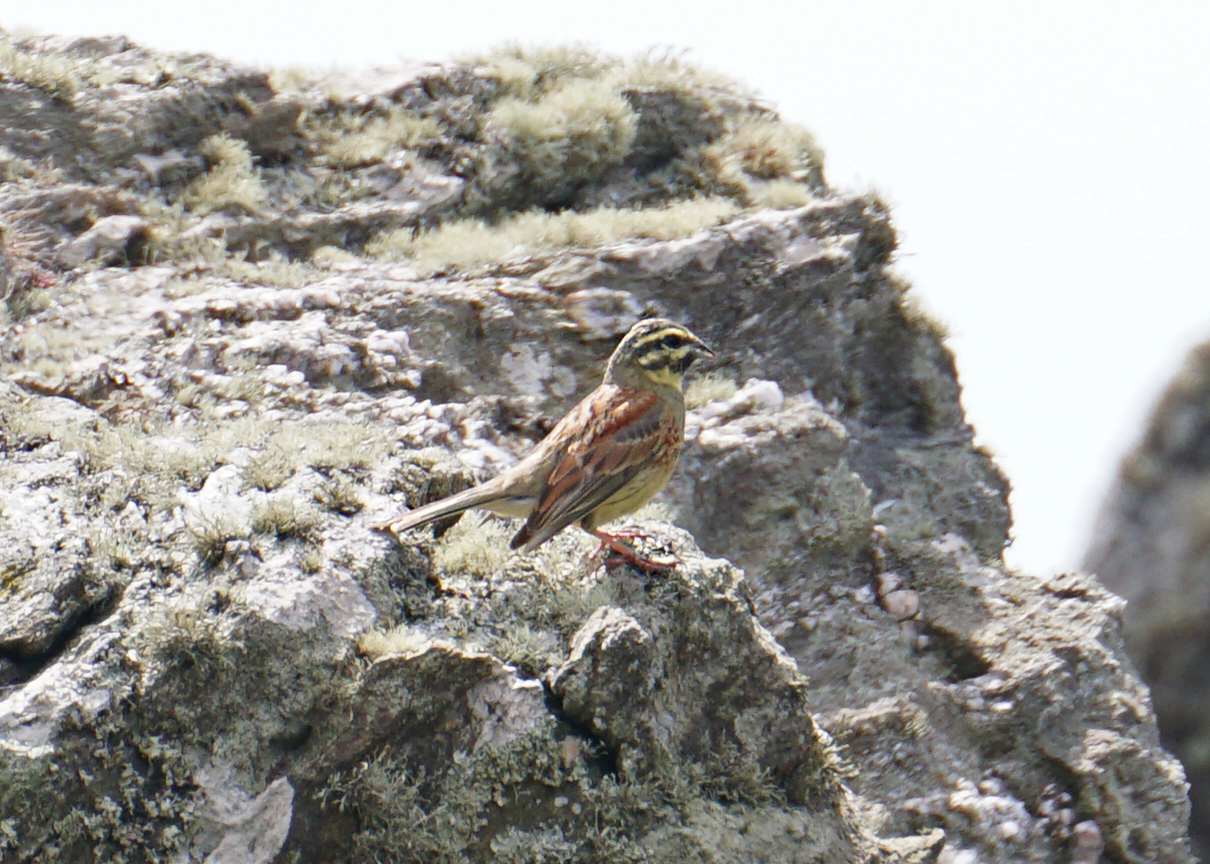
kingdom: Animalia
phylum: Chordata
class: Aves
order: Passeriformes
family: Emberizidae
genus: Emberiza
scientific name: Emberiza cirlus
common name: Cirl bunting
